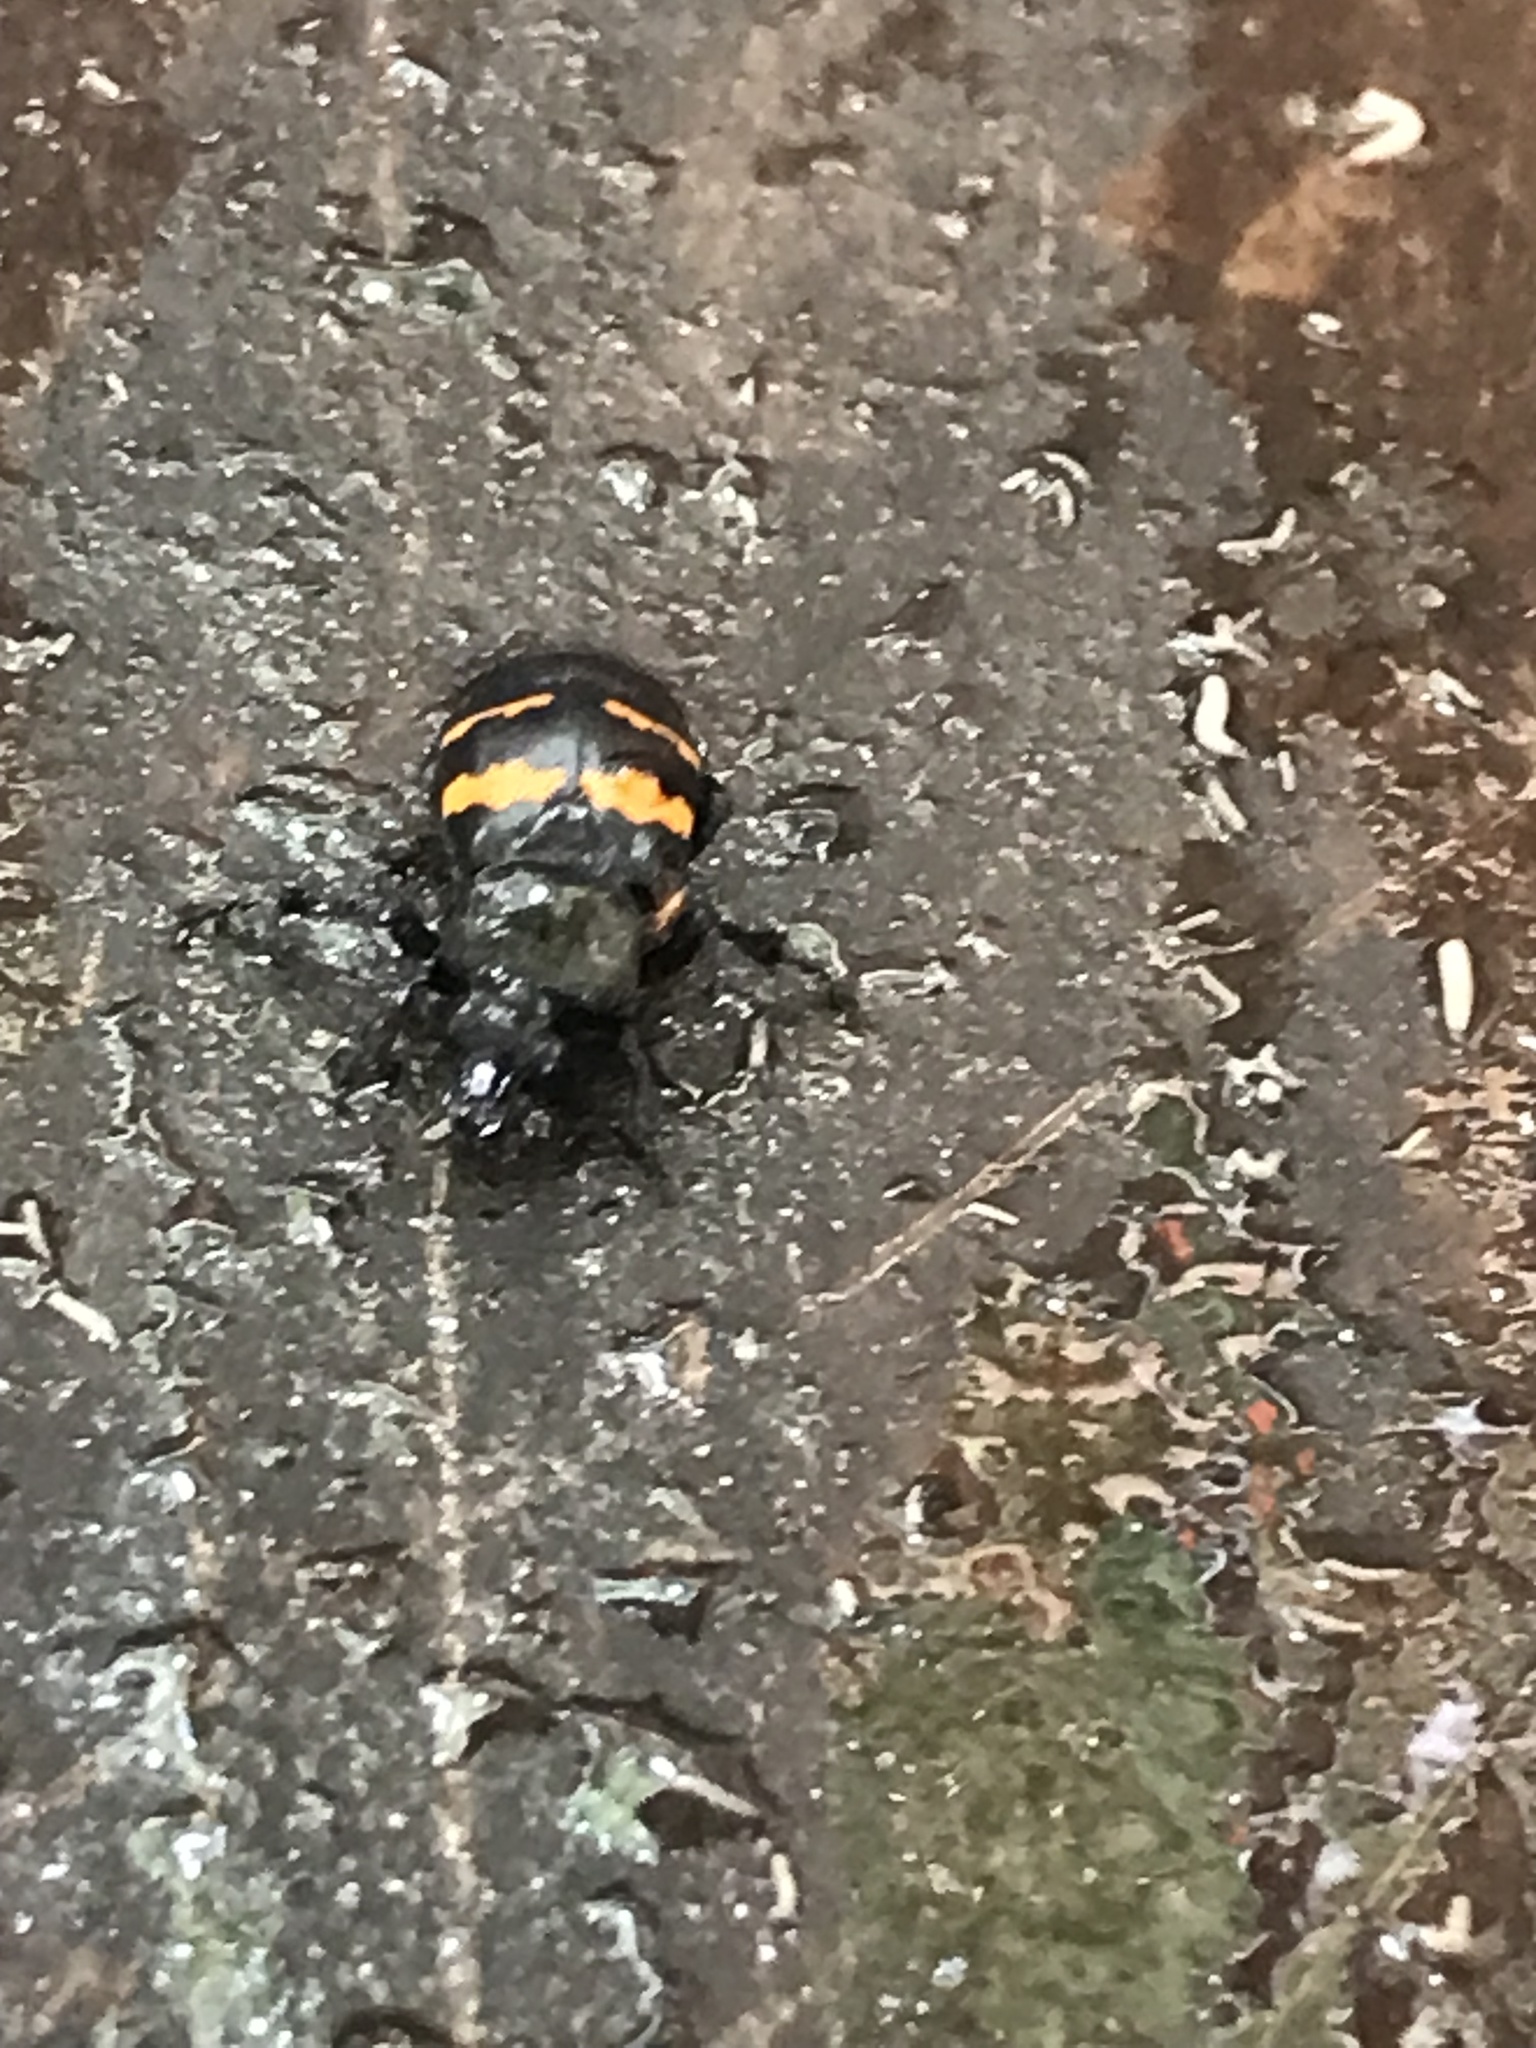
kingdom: Animalia
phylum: Arthropoda
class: Insecta
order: Coleoptera
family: Staphylinidae
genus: Nicrophorus
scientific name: Nicrophorus tomentosus
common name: Tomentose burying beetle
